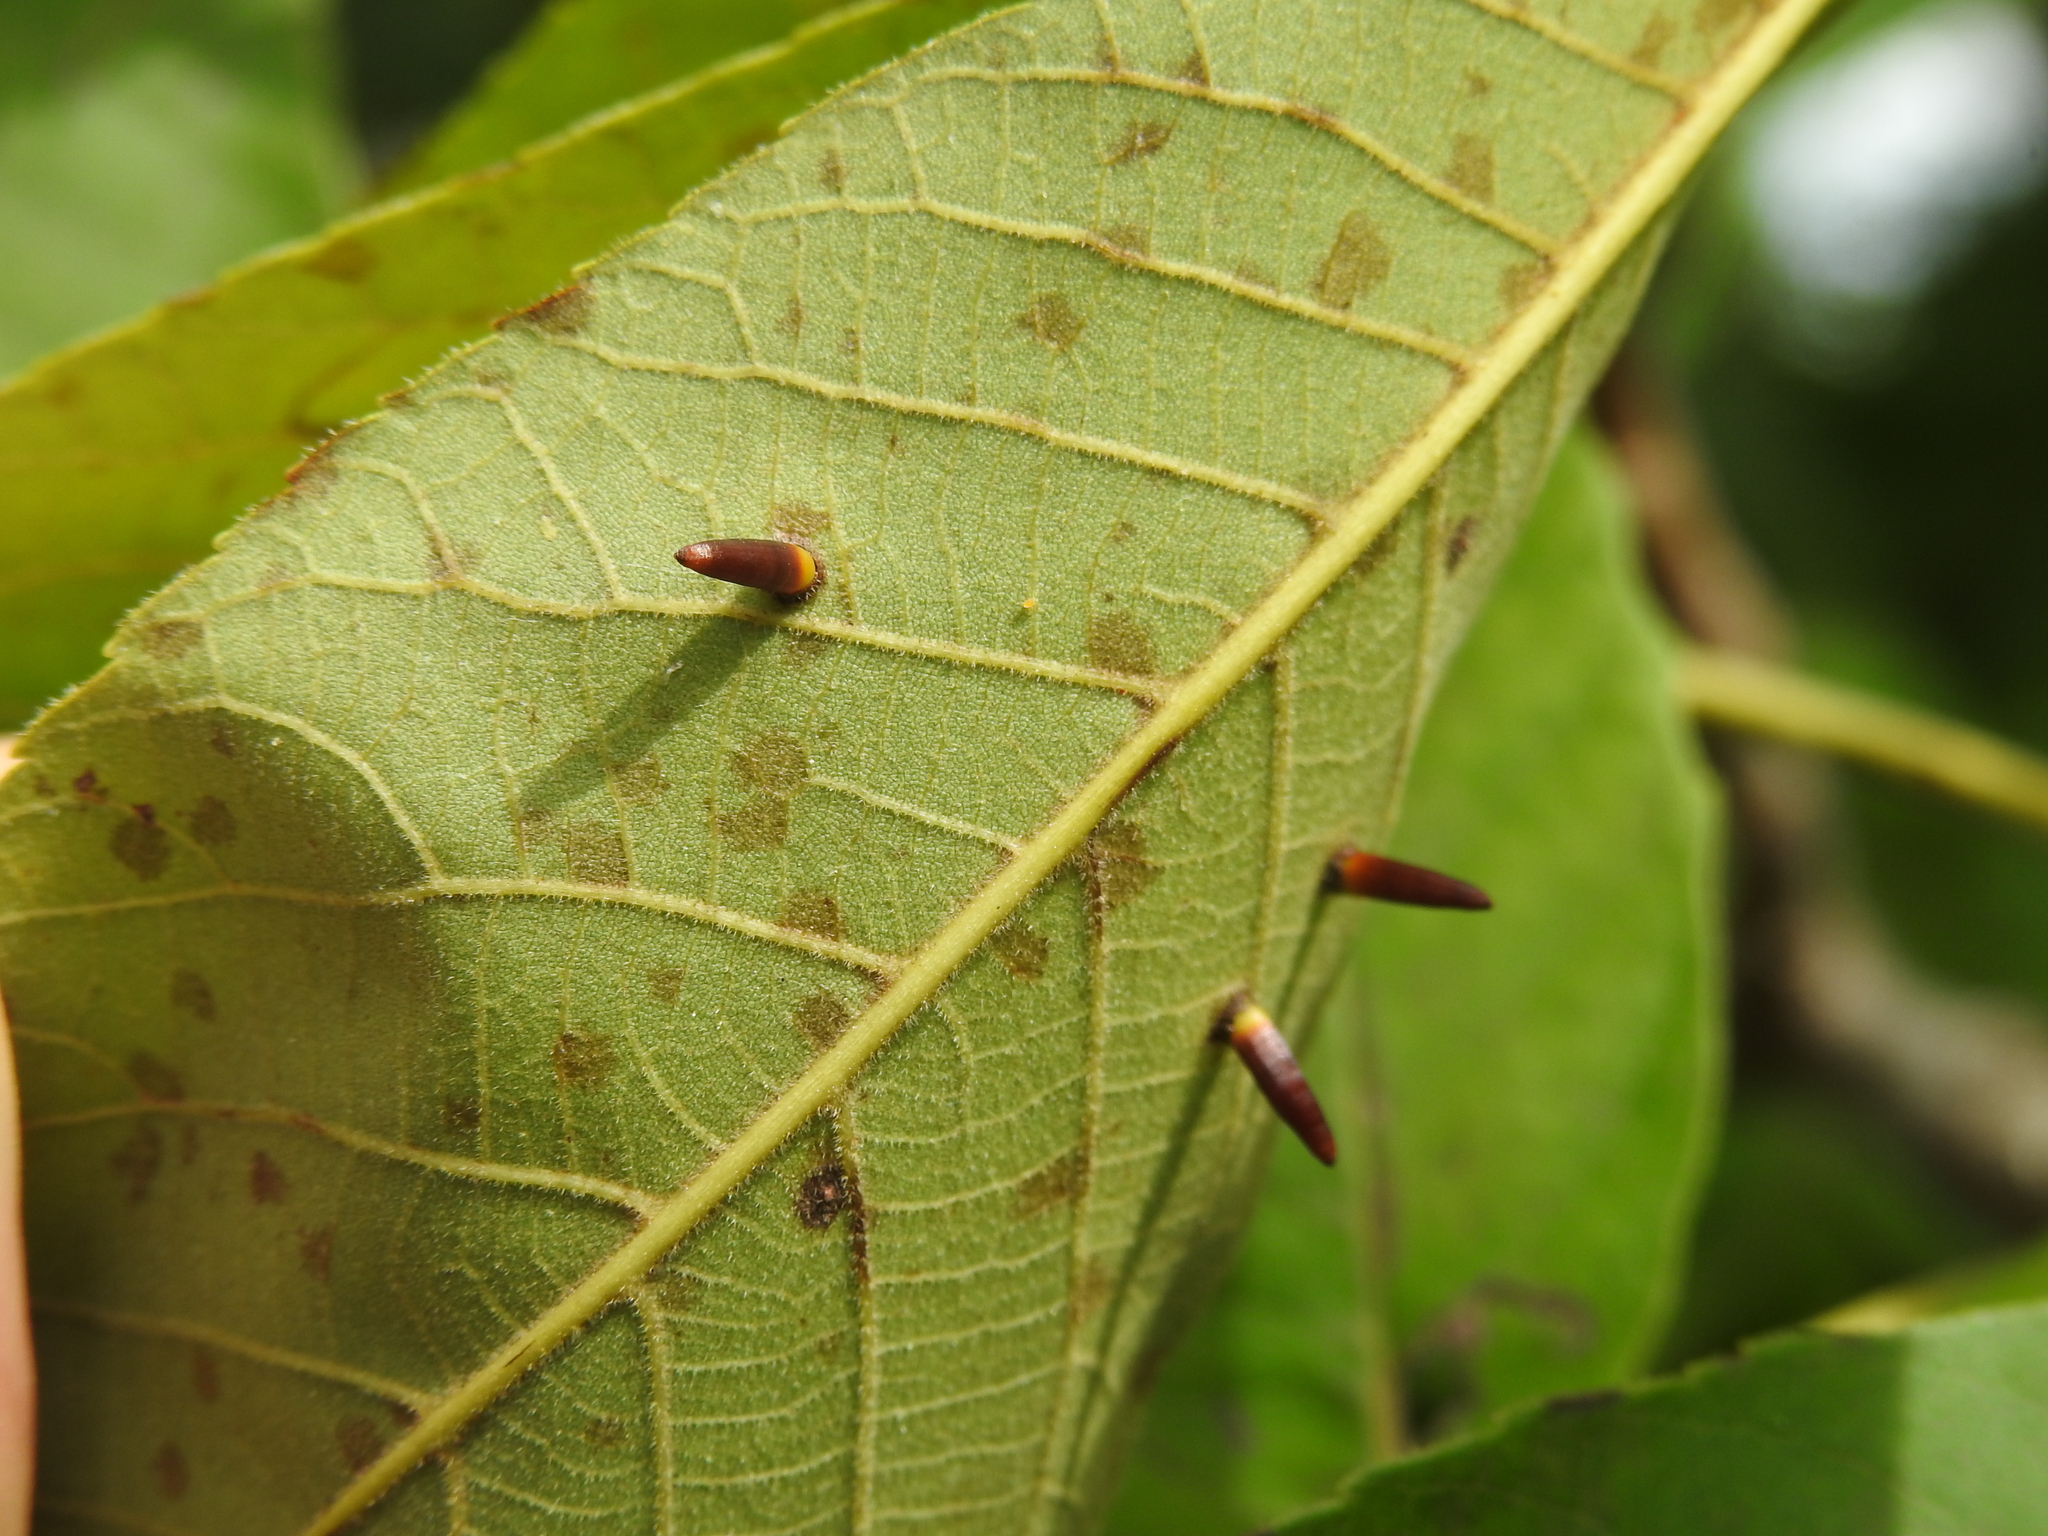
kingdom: Animalia
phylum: Arthropoda
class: Insecta
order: Diptera
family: Cecidomyiidae
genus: Caryomyia
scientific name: Caryomyia subulata
